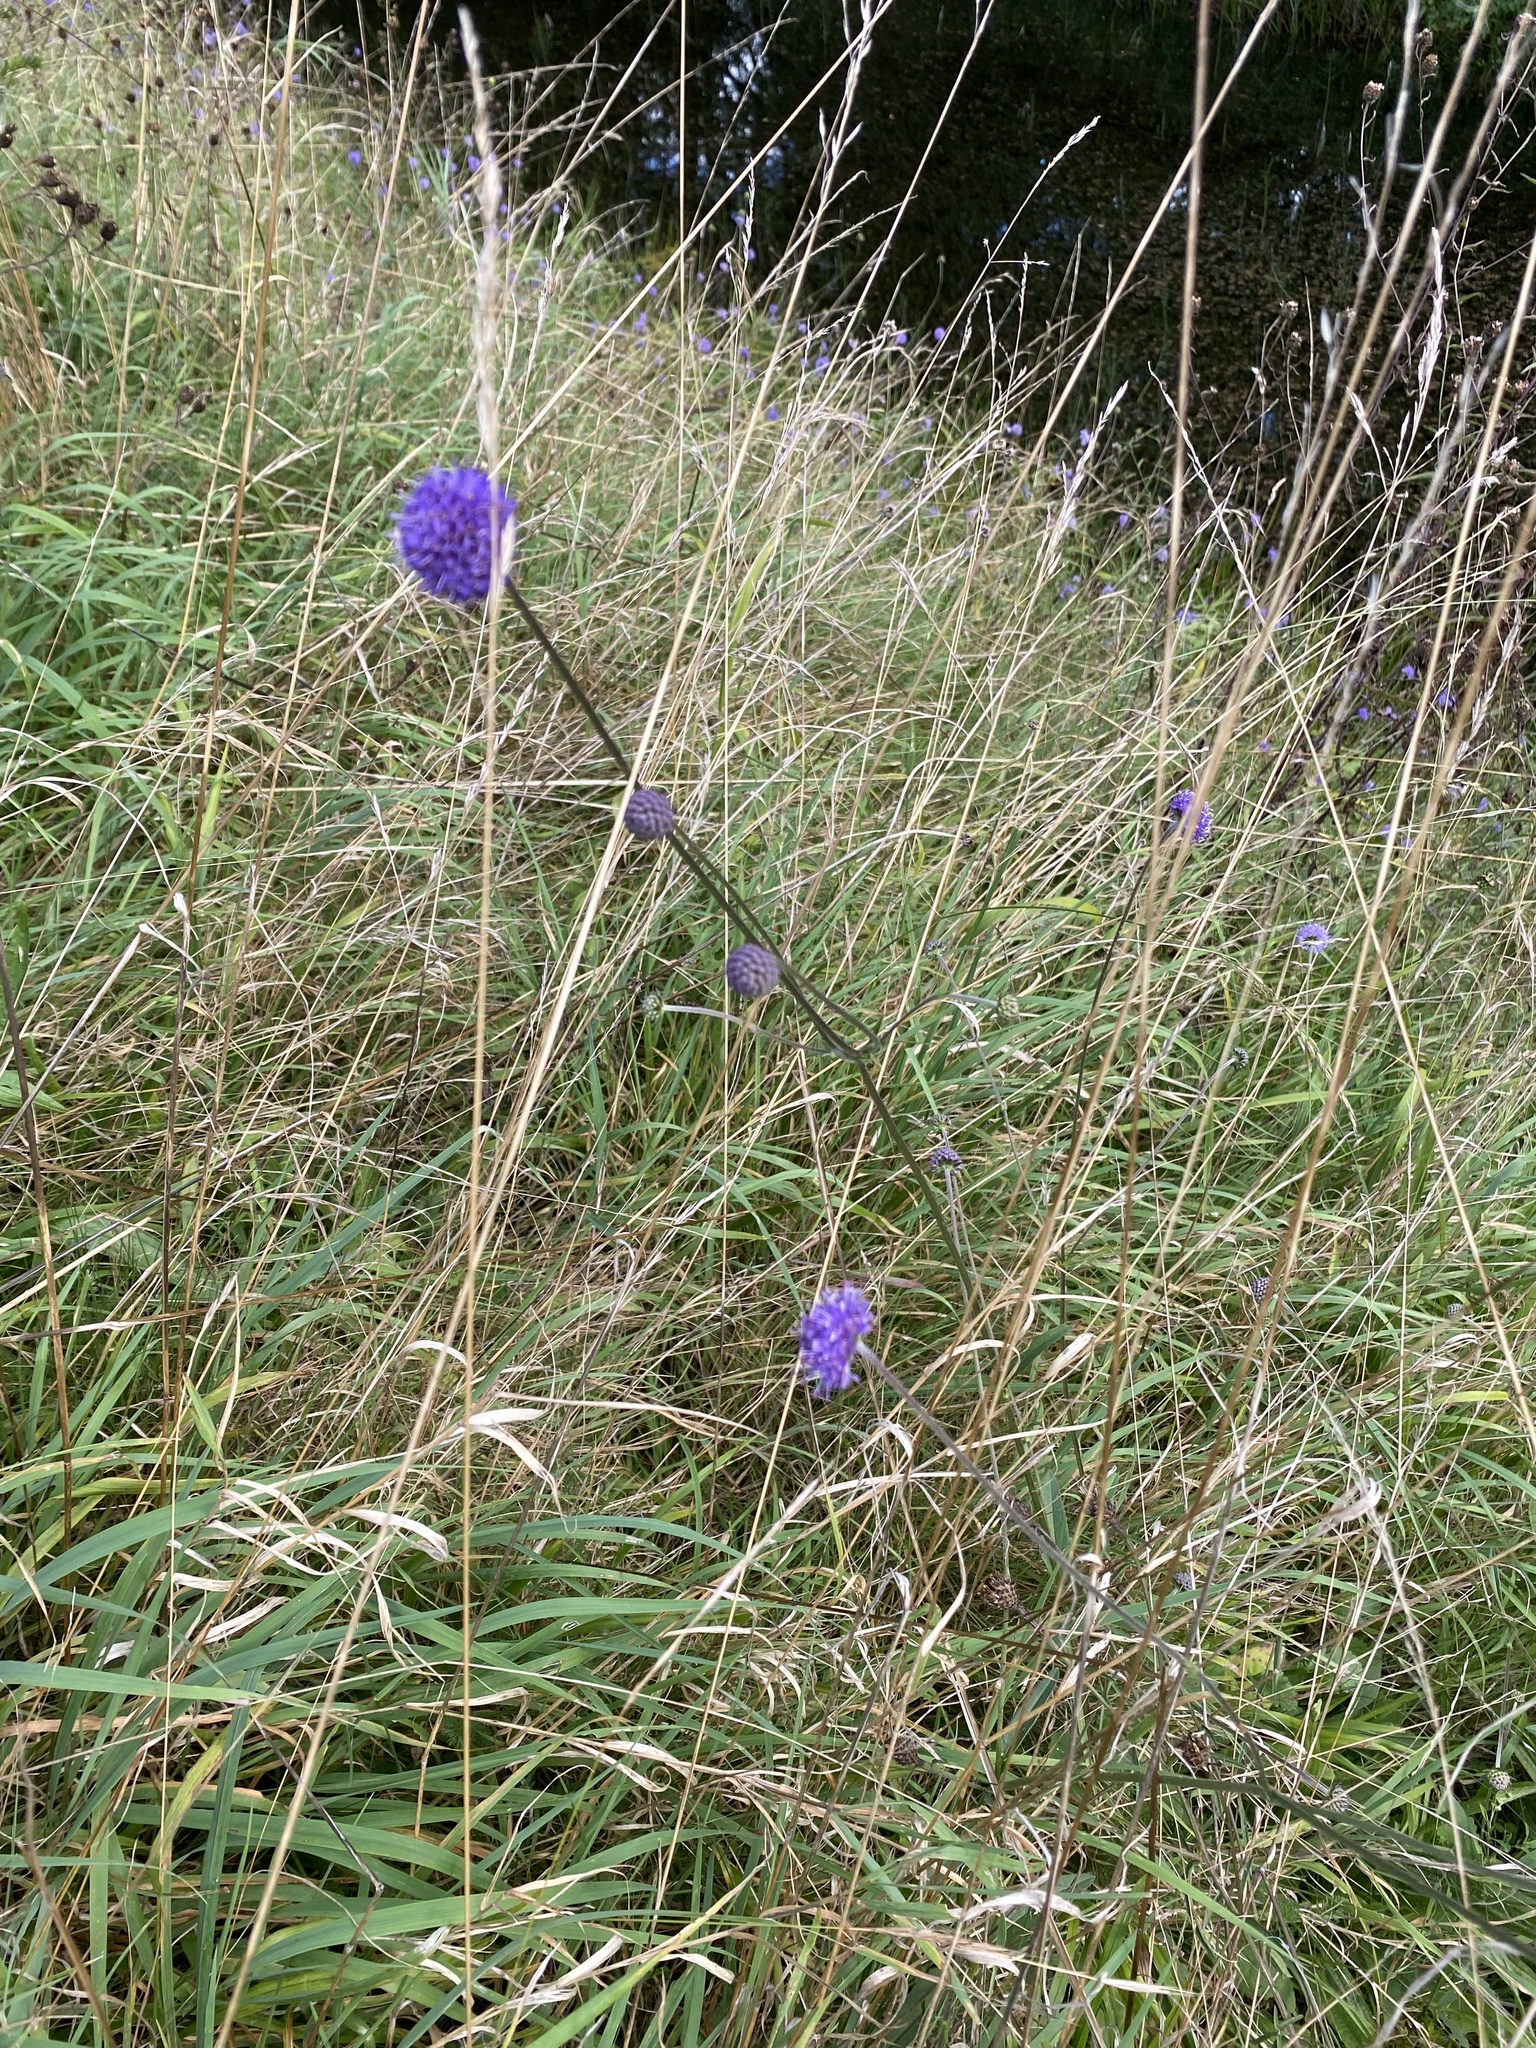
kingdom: Plantae
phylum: Tracheophyta
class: Magnoliopsida
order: Dipsacales
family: Caprifoliaceae
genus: Succisa
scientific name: Succisa pratensis
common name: Devil's-bit
